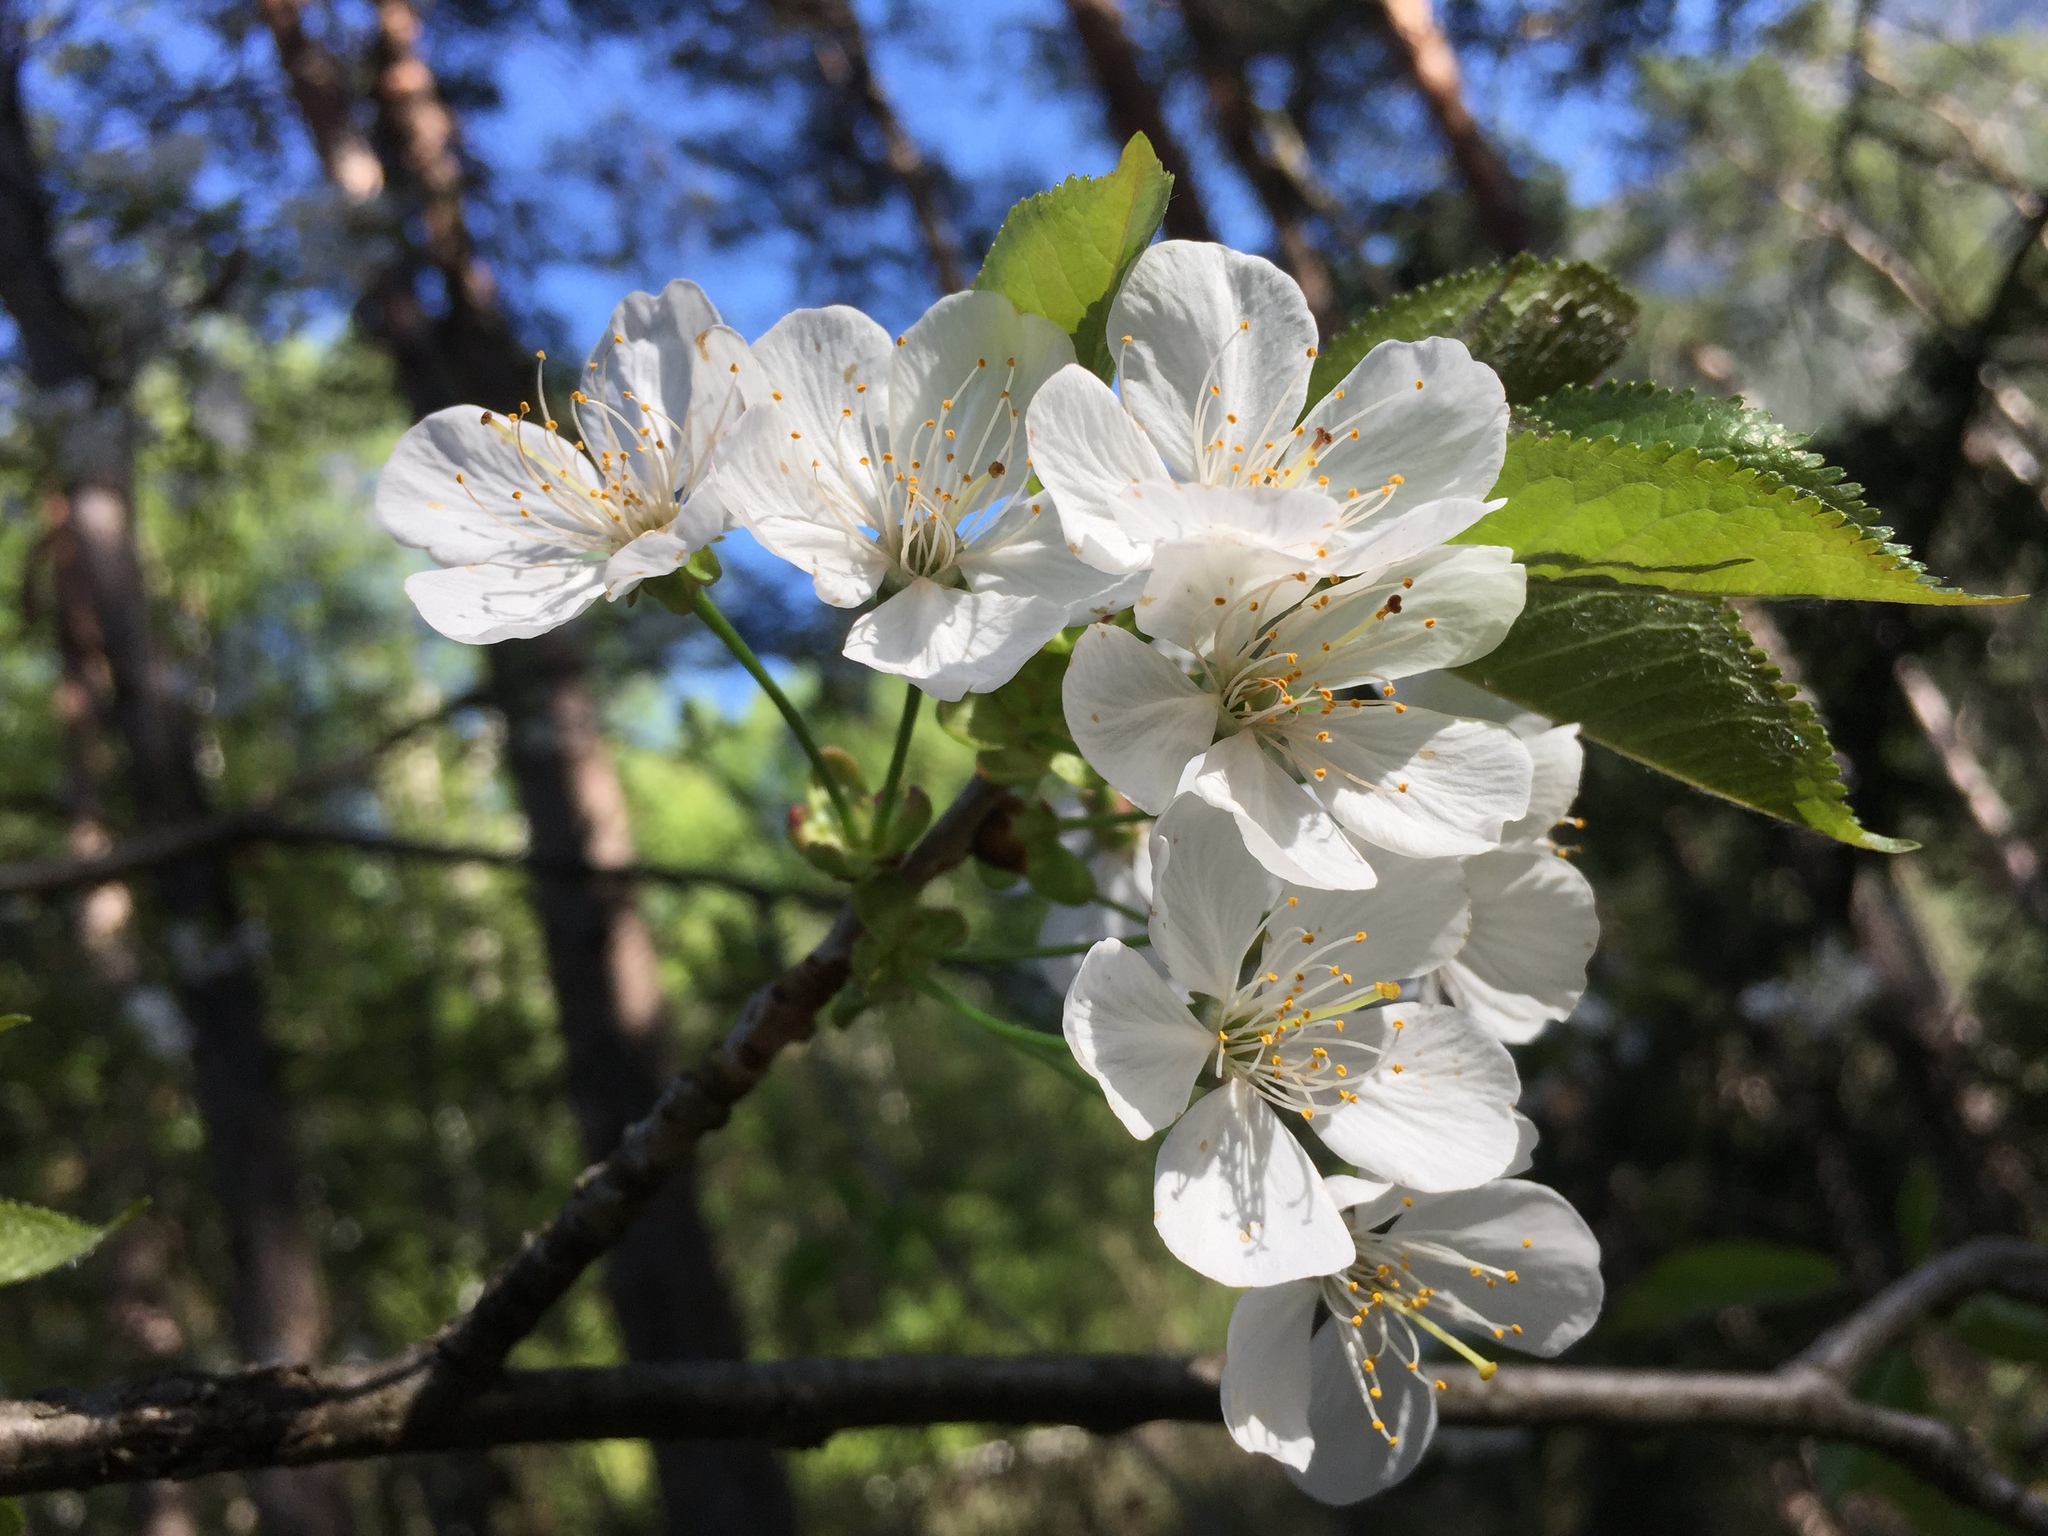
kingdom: Plantae
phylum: Tracheophyta
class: Magnoliopsida
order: Rosales
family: Rosaceae
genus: Prunus
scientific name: Prunus avium
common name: Sweet cherry
